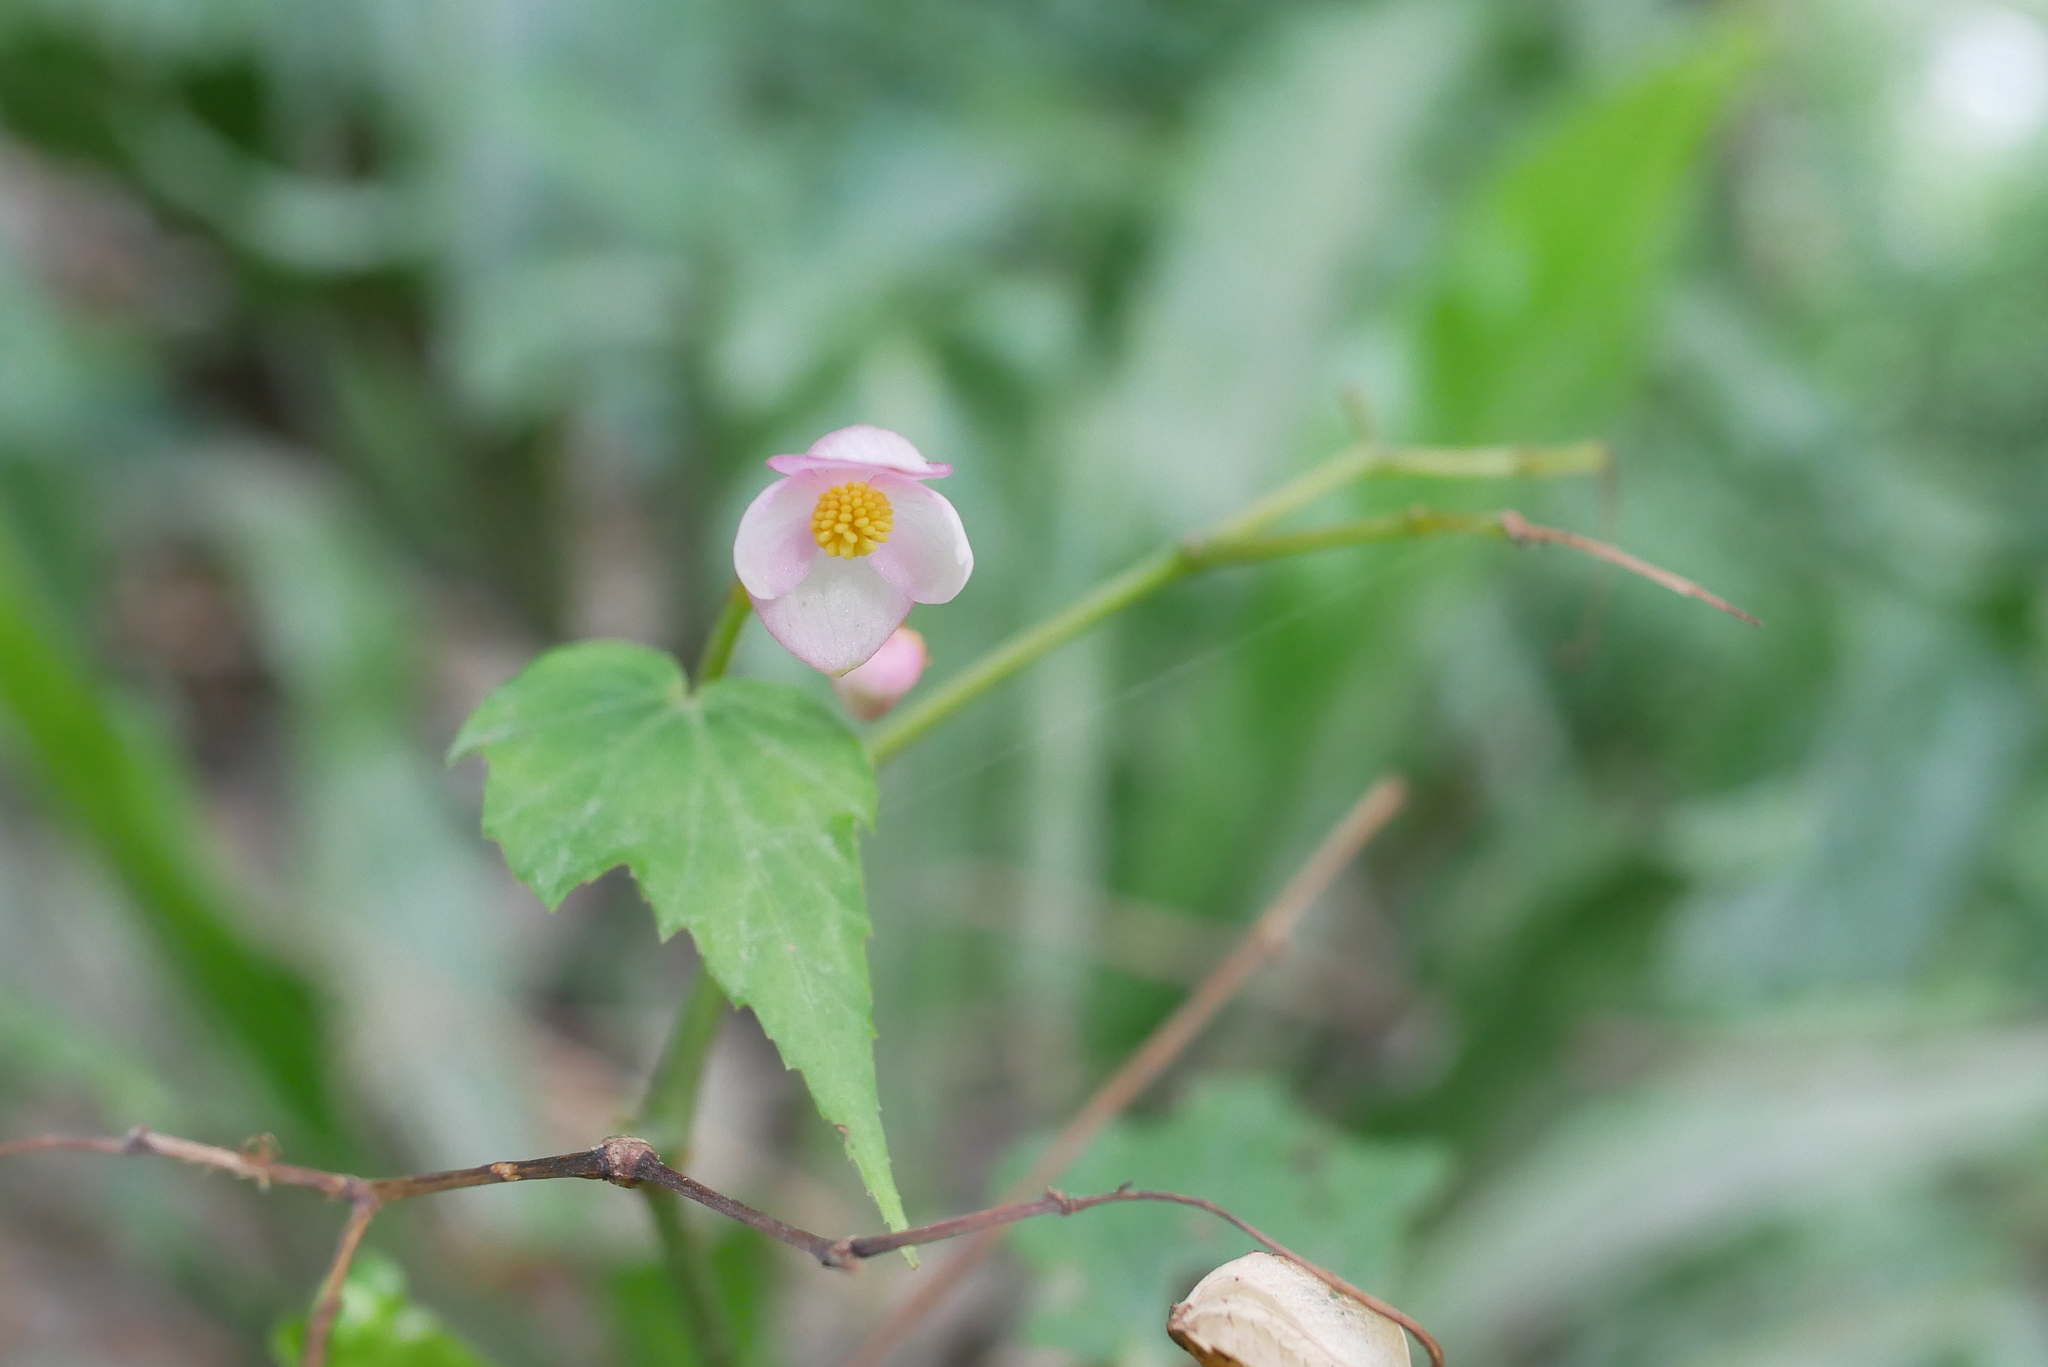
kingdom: Plantae
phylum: Tracheophyta
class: Magnoliopsida
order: Cucurbitales
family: Begoniaceae
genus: Begonia
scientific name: Begonia formosana
